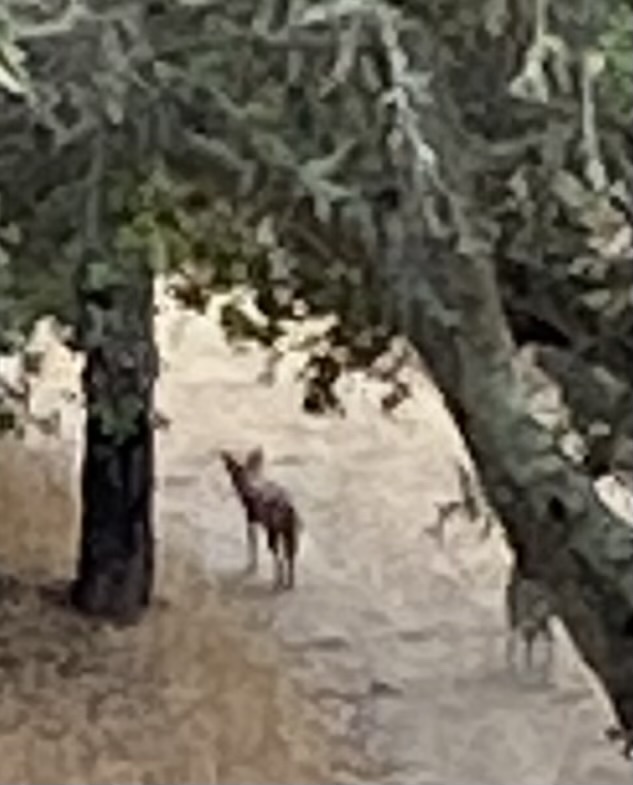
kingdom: Animalia
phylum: Chordata
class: Mammalia
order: Carnivora
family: Canidae
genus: Canis
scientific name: Canis latrans
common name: Coyote
